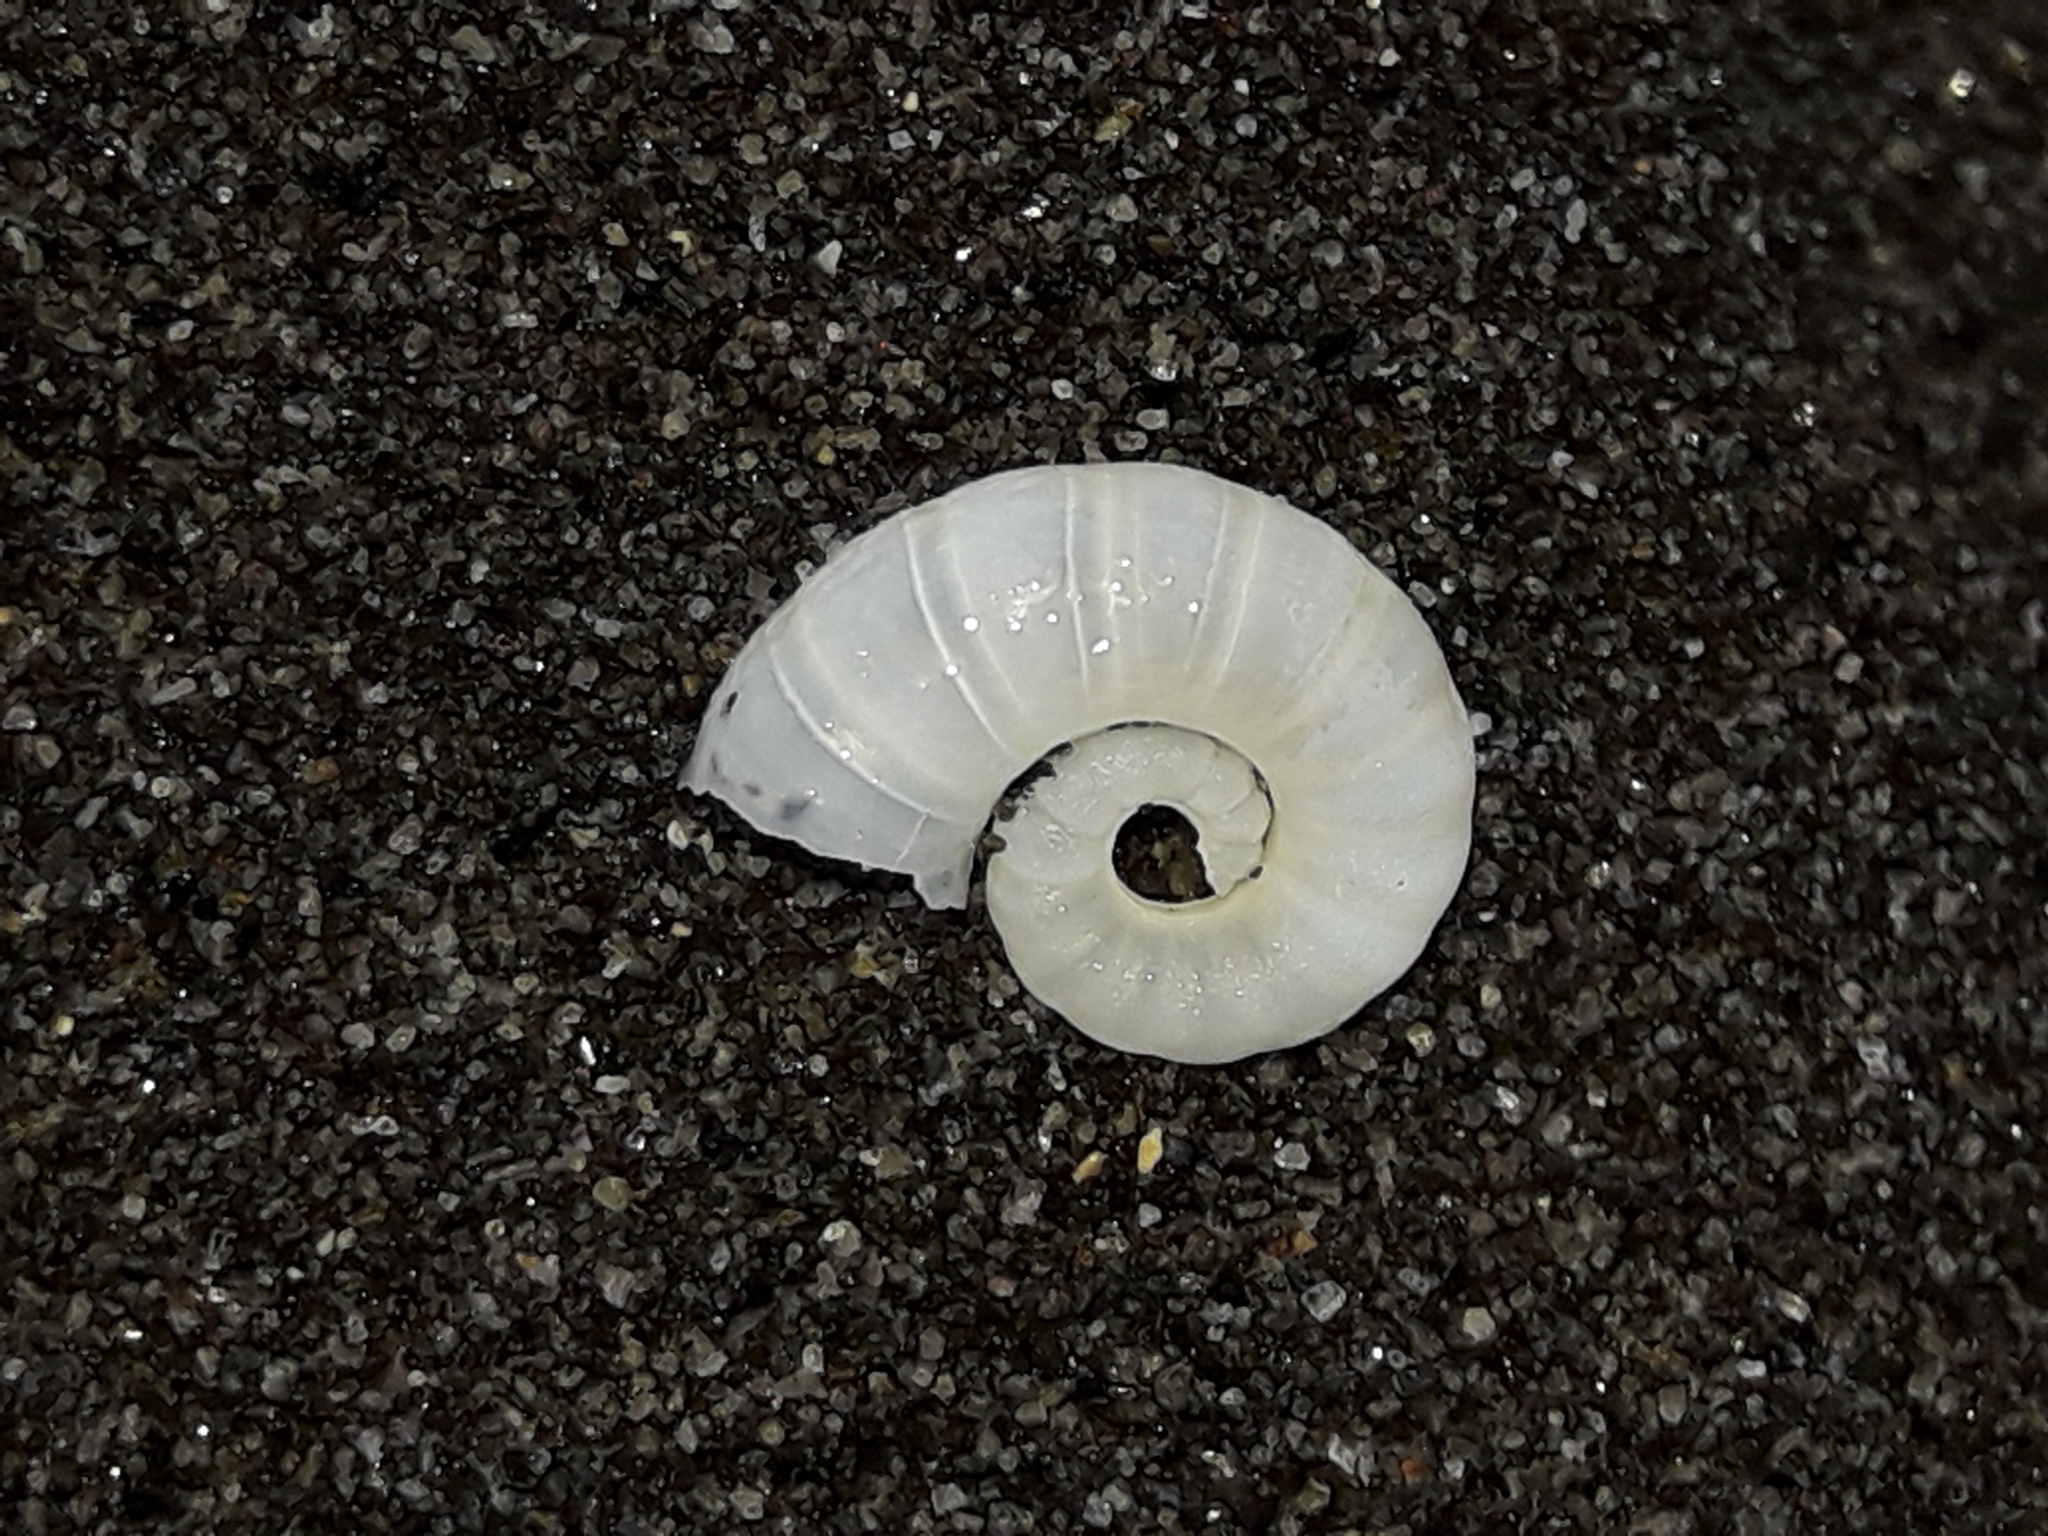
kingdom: Animalia
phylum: Mollusca
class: Cephalopoda
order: Spirulida
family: Spirulidae
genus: Spirula
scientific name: Spirula spirula
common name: Ram's horn squid
